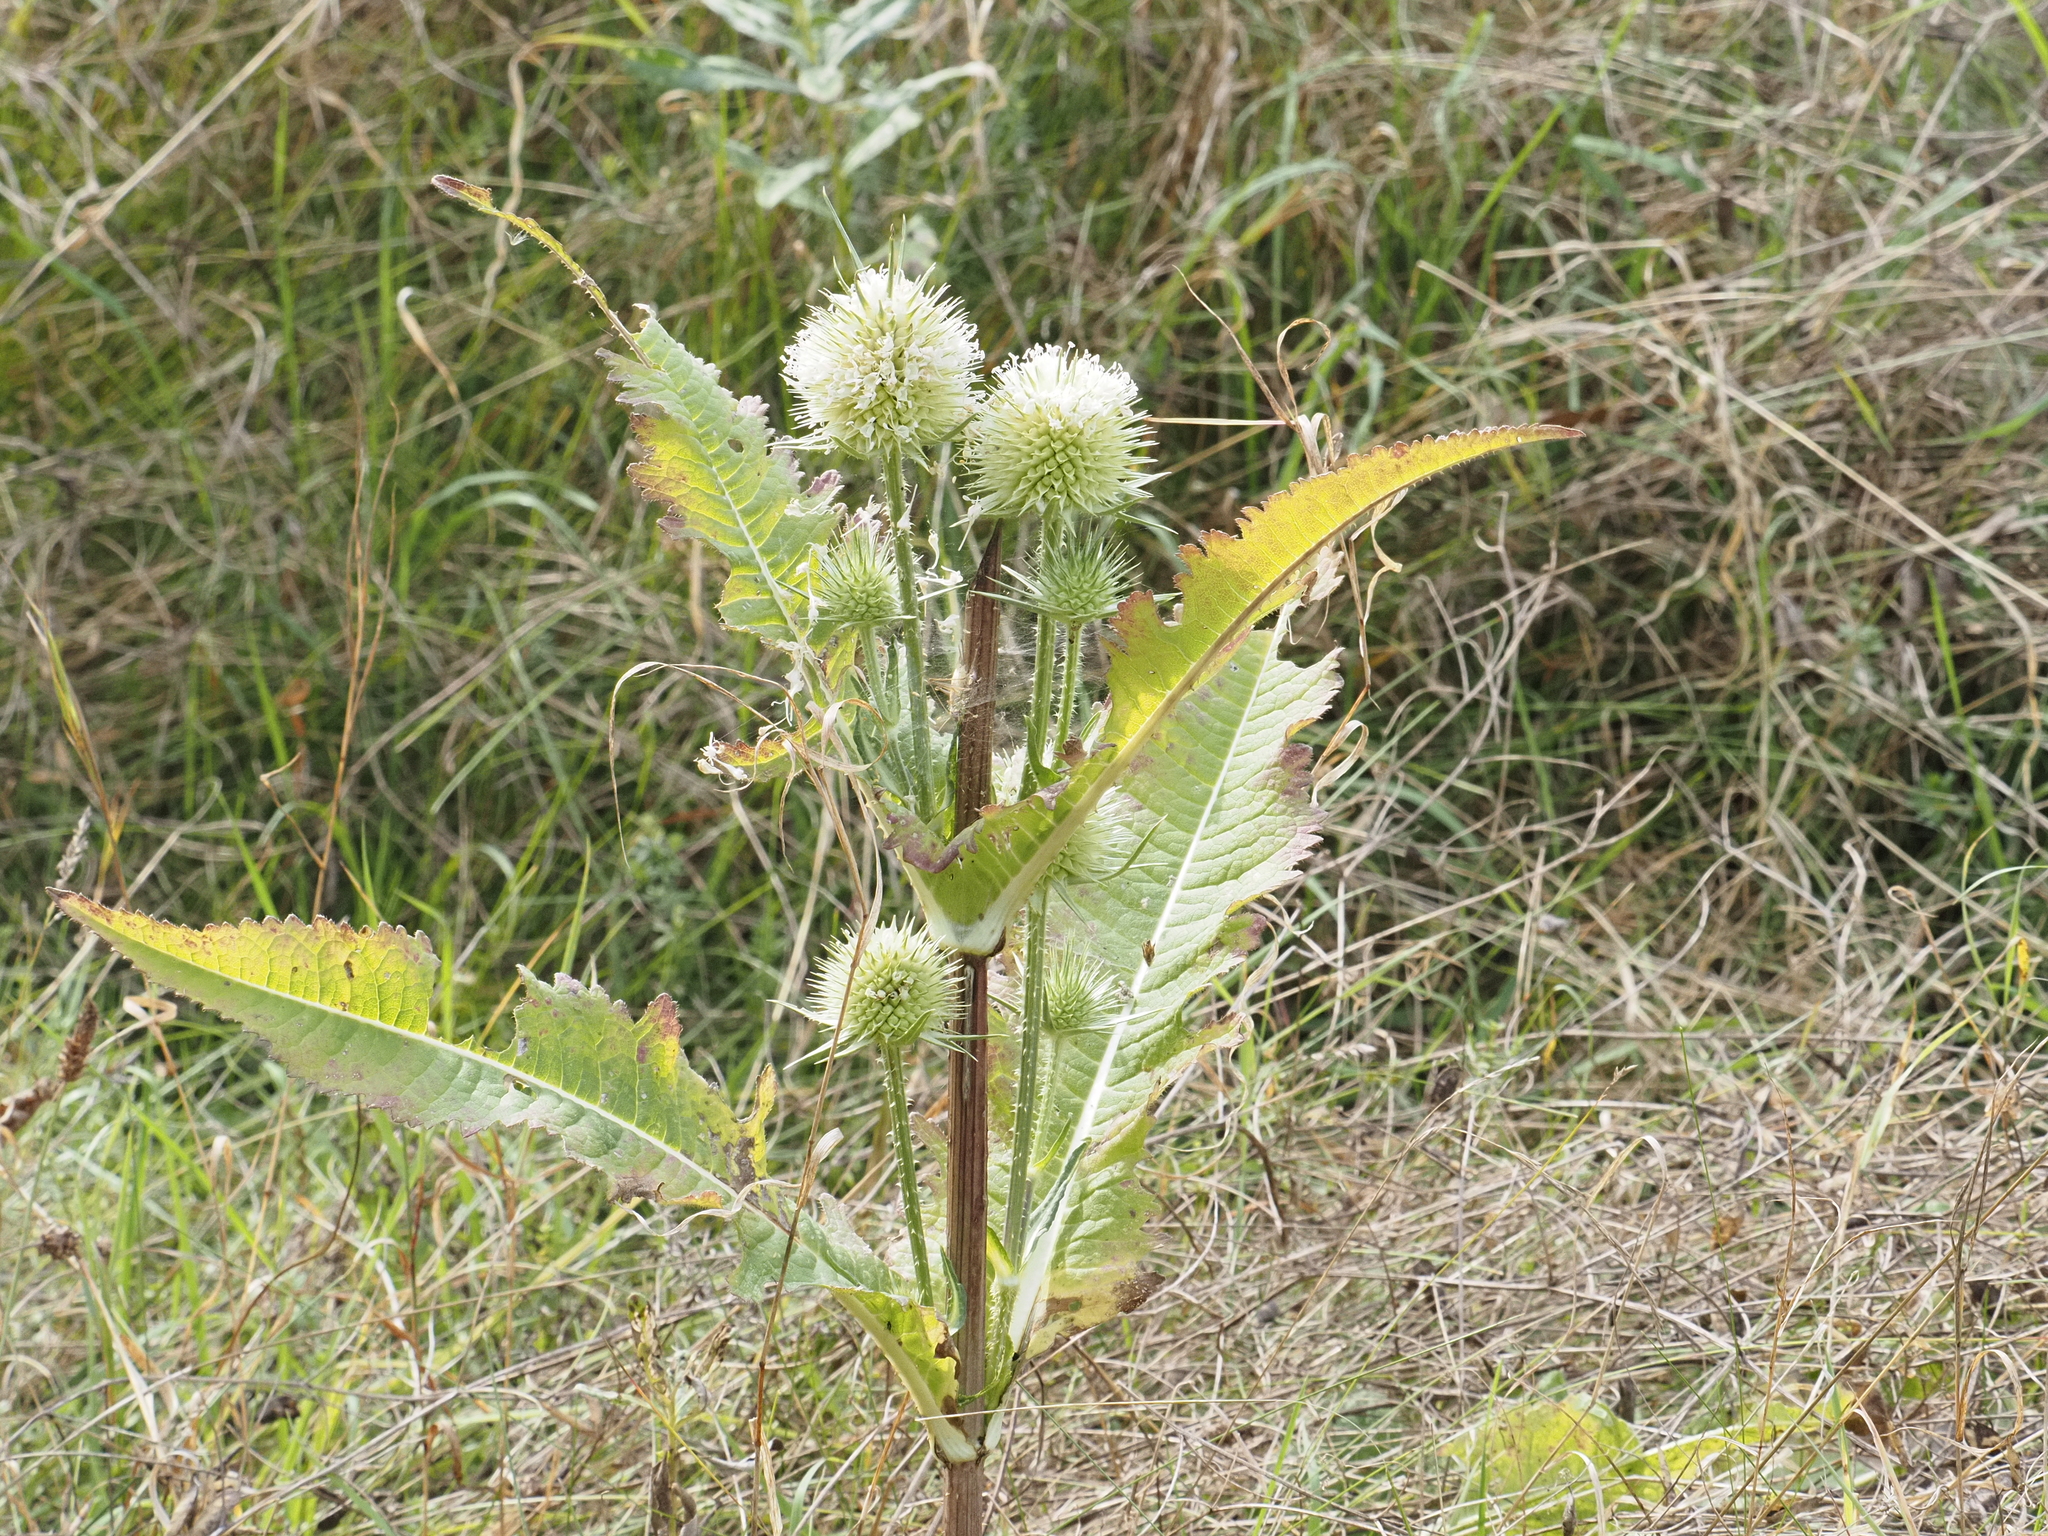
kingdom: Plantae
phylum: Tracheophyta
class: Magnoliopsida
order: Dipsacales
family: Caprifoliaceae
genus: Dipsacus
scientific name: Dipsacus laciniatus
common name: Cut-leaved teasel
